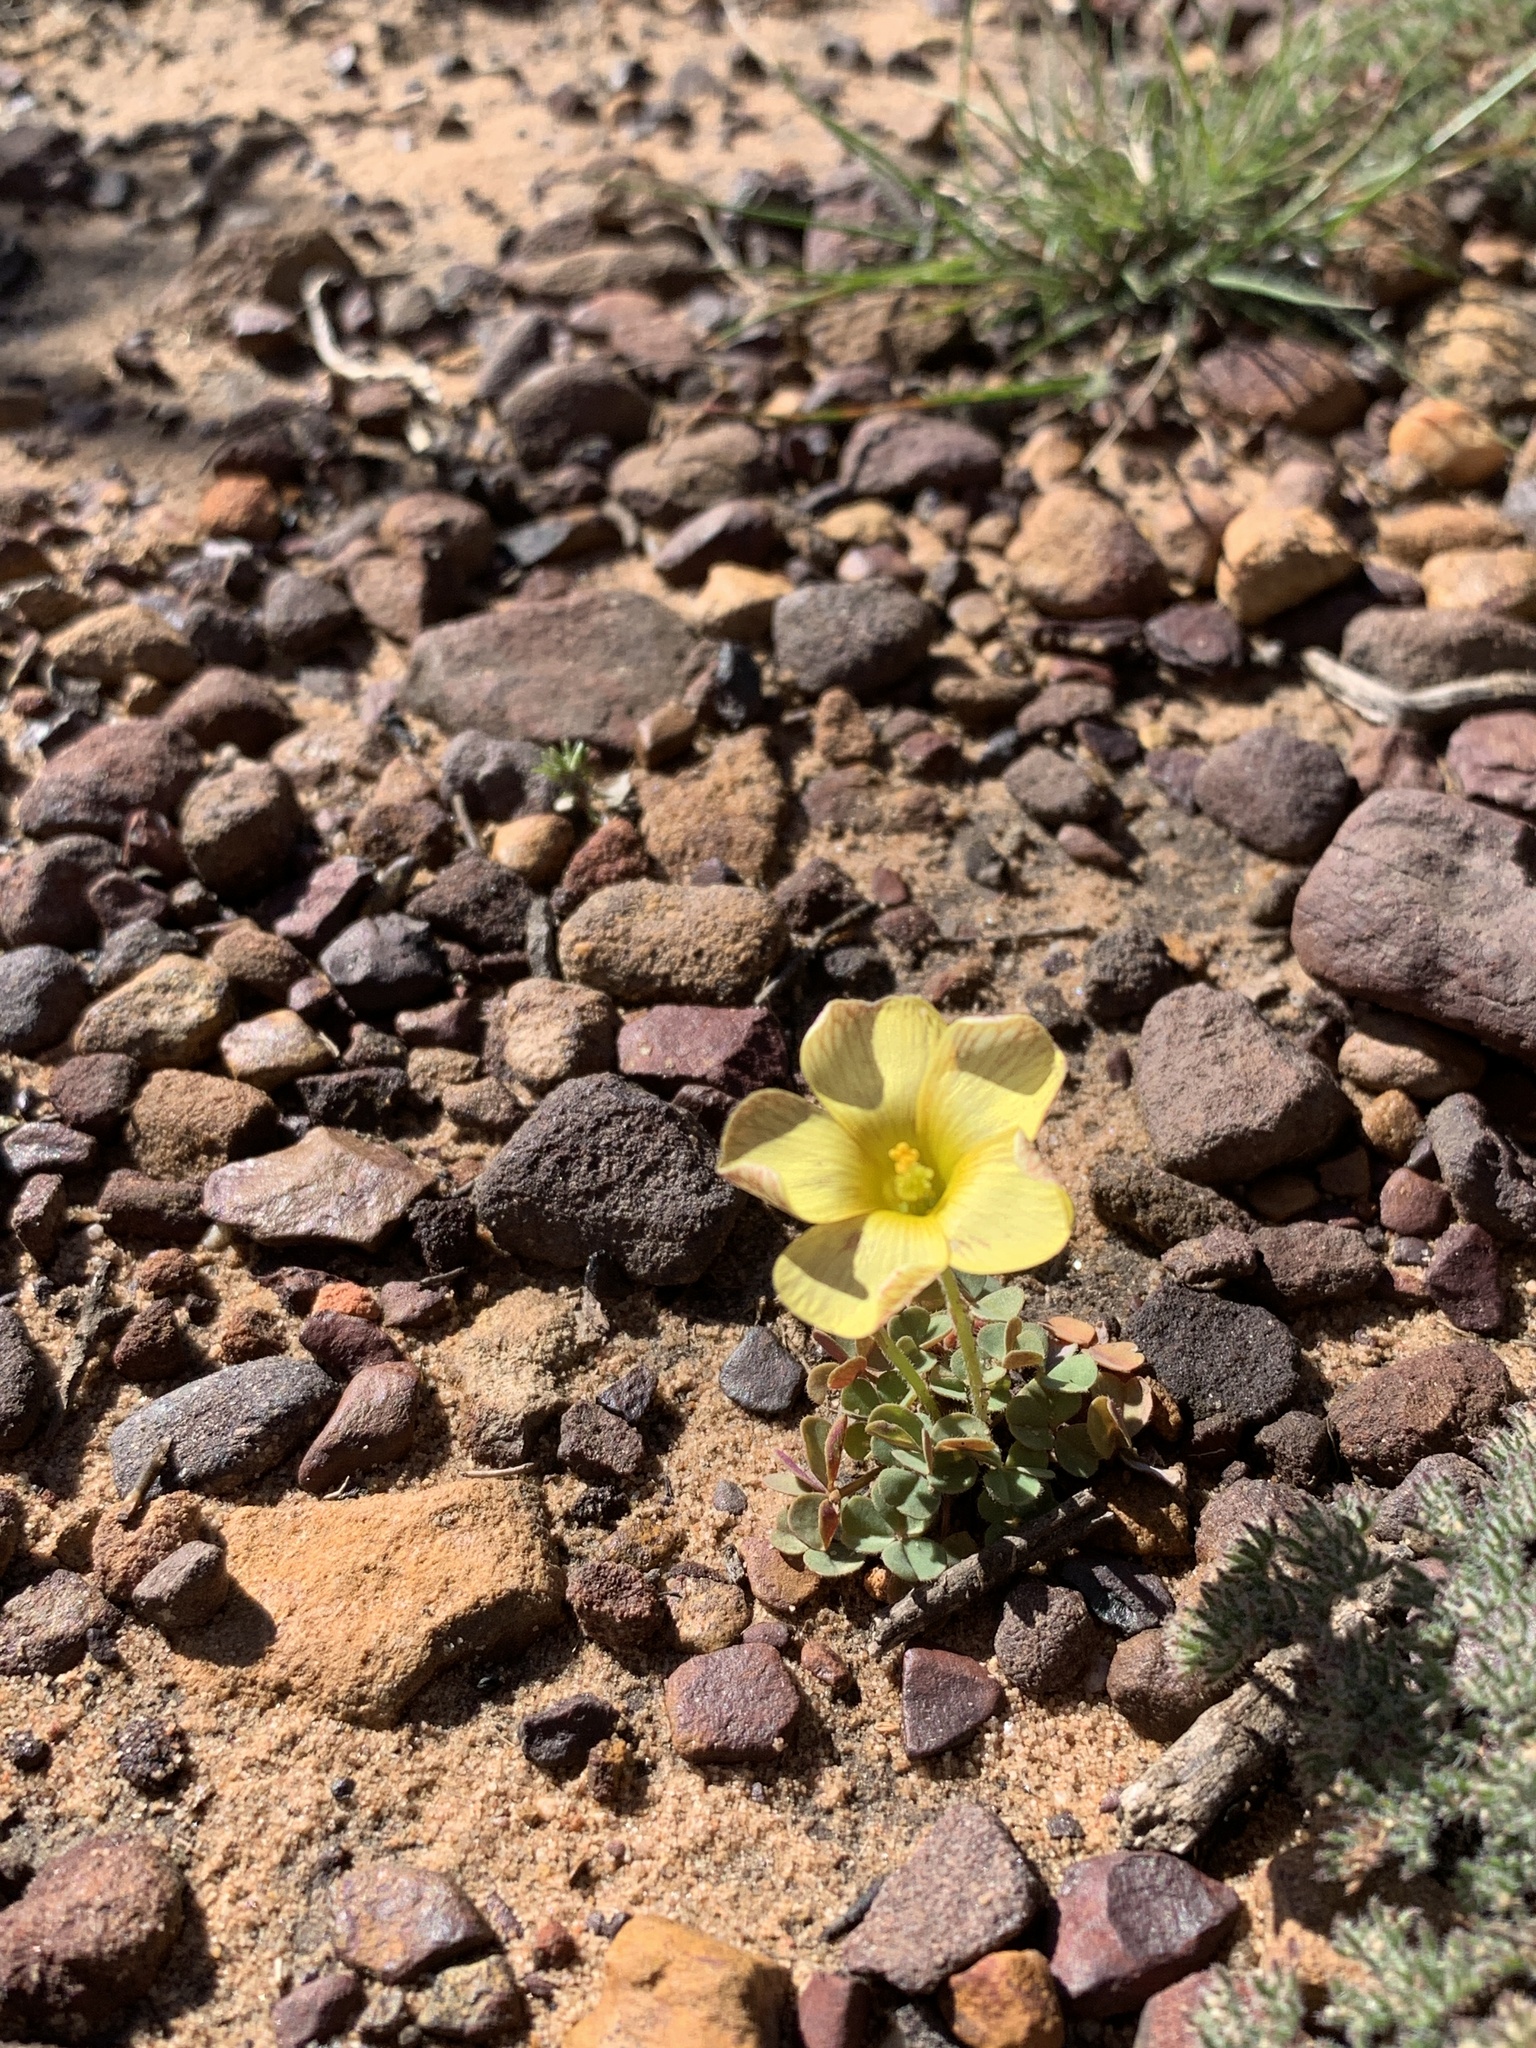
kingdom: Plantae
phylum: Tracheophyta
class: Magnoliopsida
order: Oxalidales
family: Oxalidaceae
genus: Oxalis
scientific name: Oxalis obtusa
